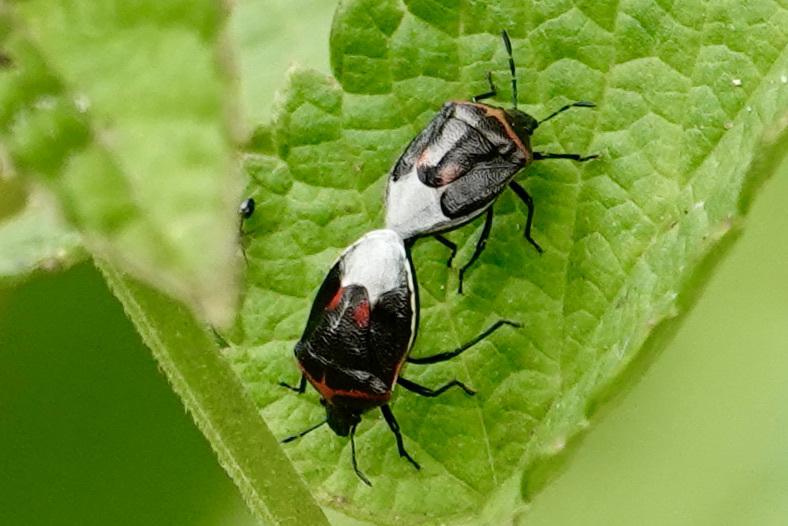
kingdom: Animalia
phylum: Arthropoda
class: Insecta
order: Hemiptera
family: Pentatomidae
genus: Cosmopepla
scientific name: Cosmopepla lintneriana
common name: Twice-stabbed stink bug
